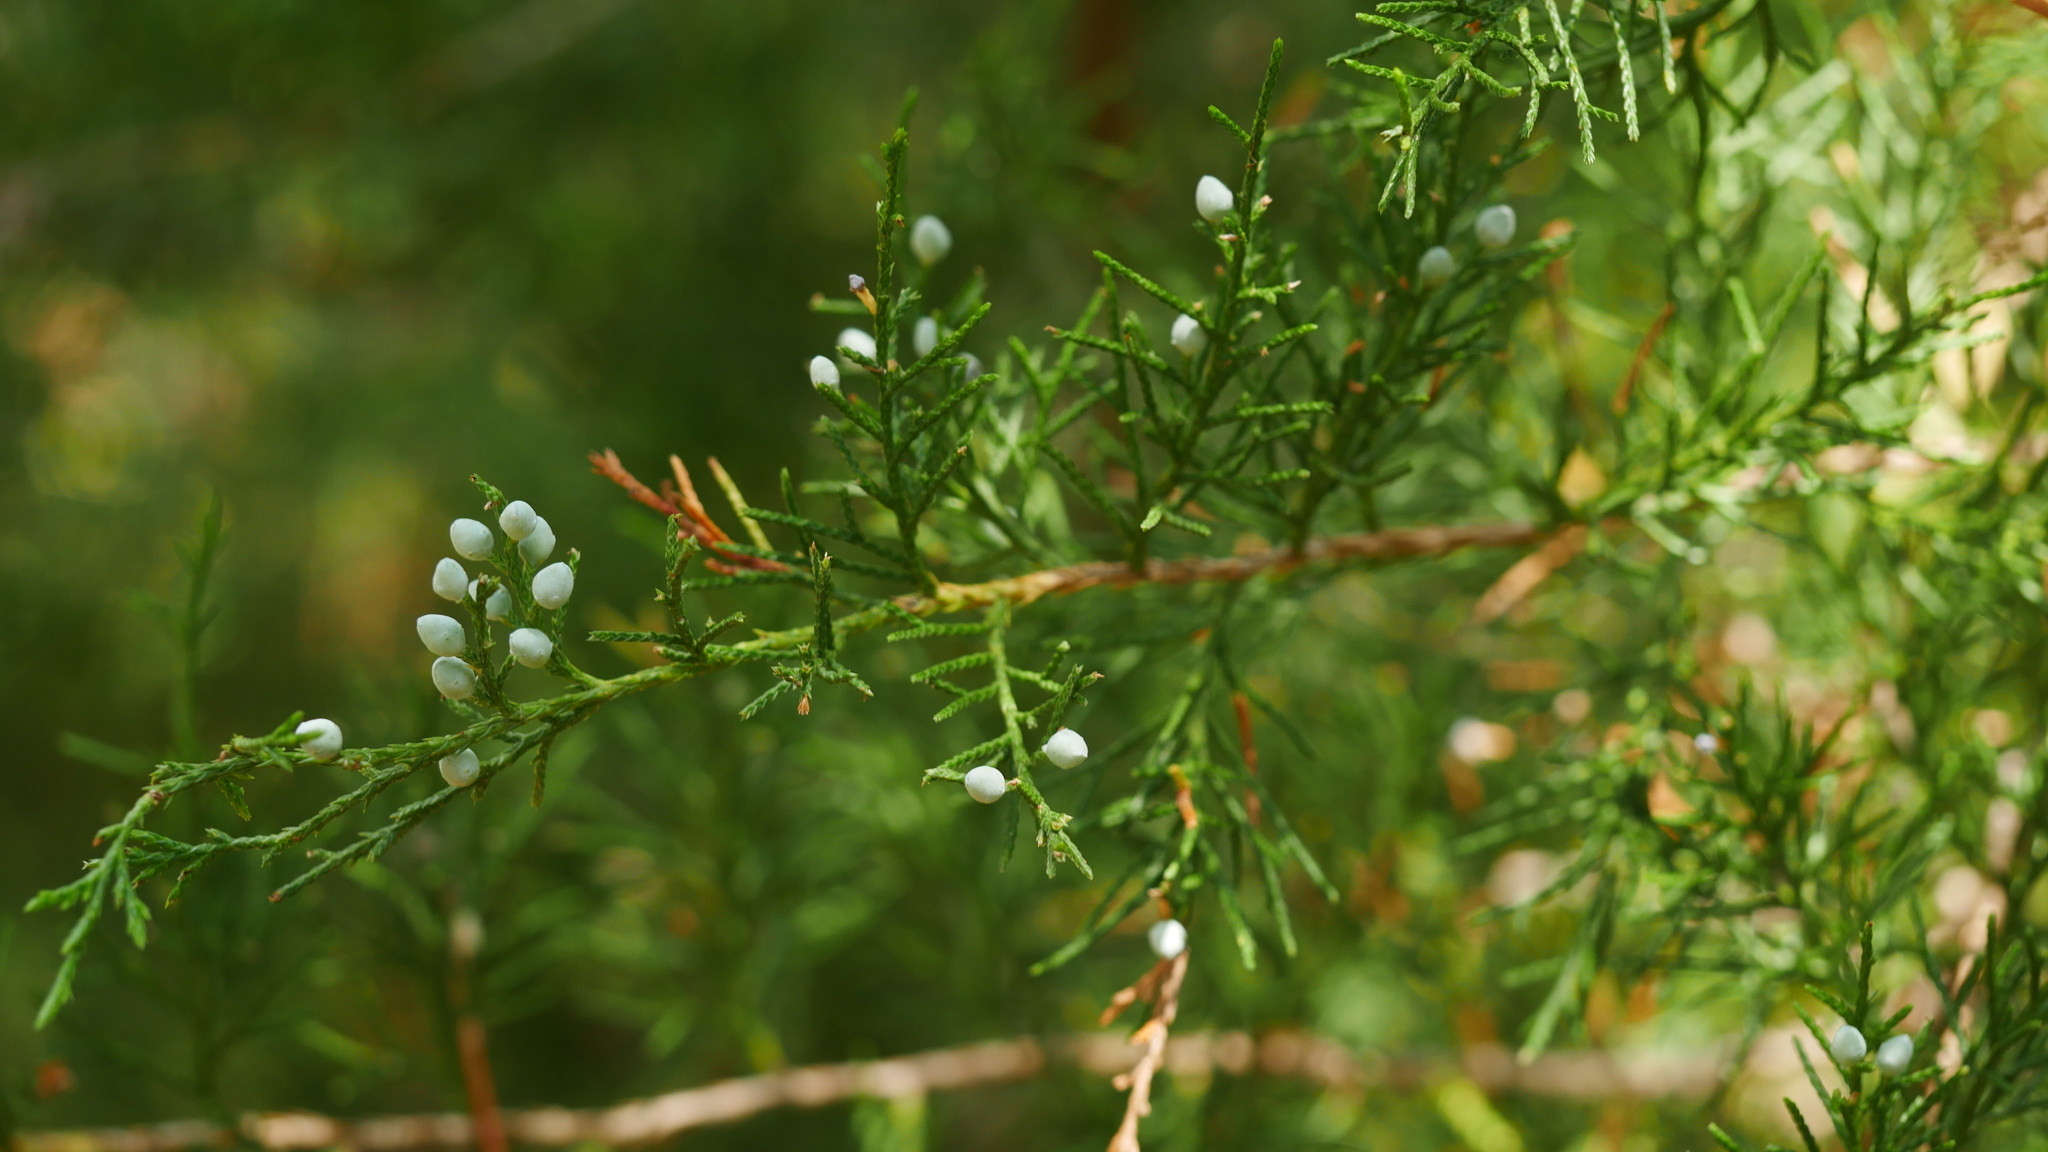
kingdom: Fungi
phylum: Basidiomycota
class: Pucciniomycetes
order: Pucciniales
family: Gymnosporangiaceae
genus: Gymnosporangium
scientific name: Gymnosporangium juniperi-virginianae
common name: Juniper-apple rust
